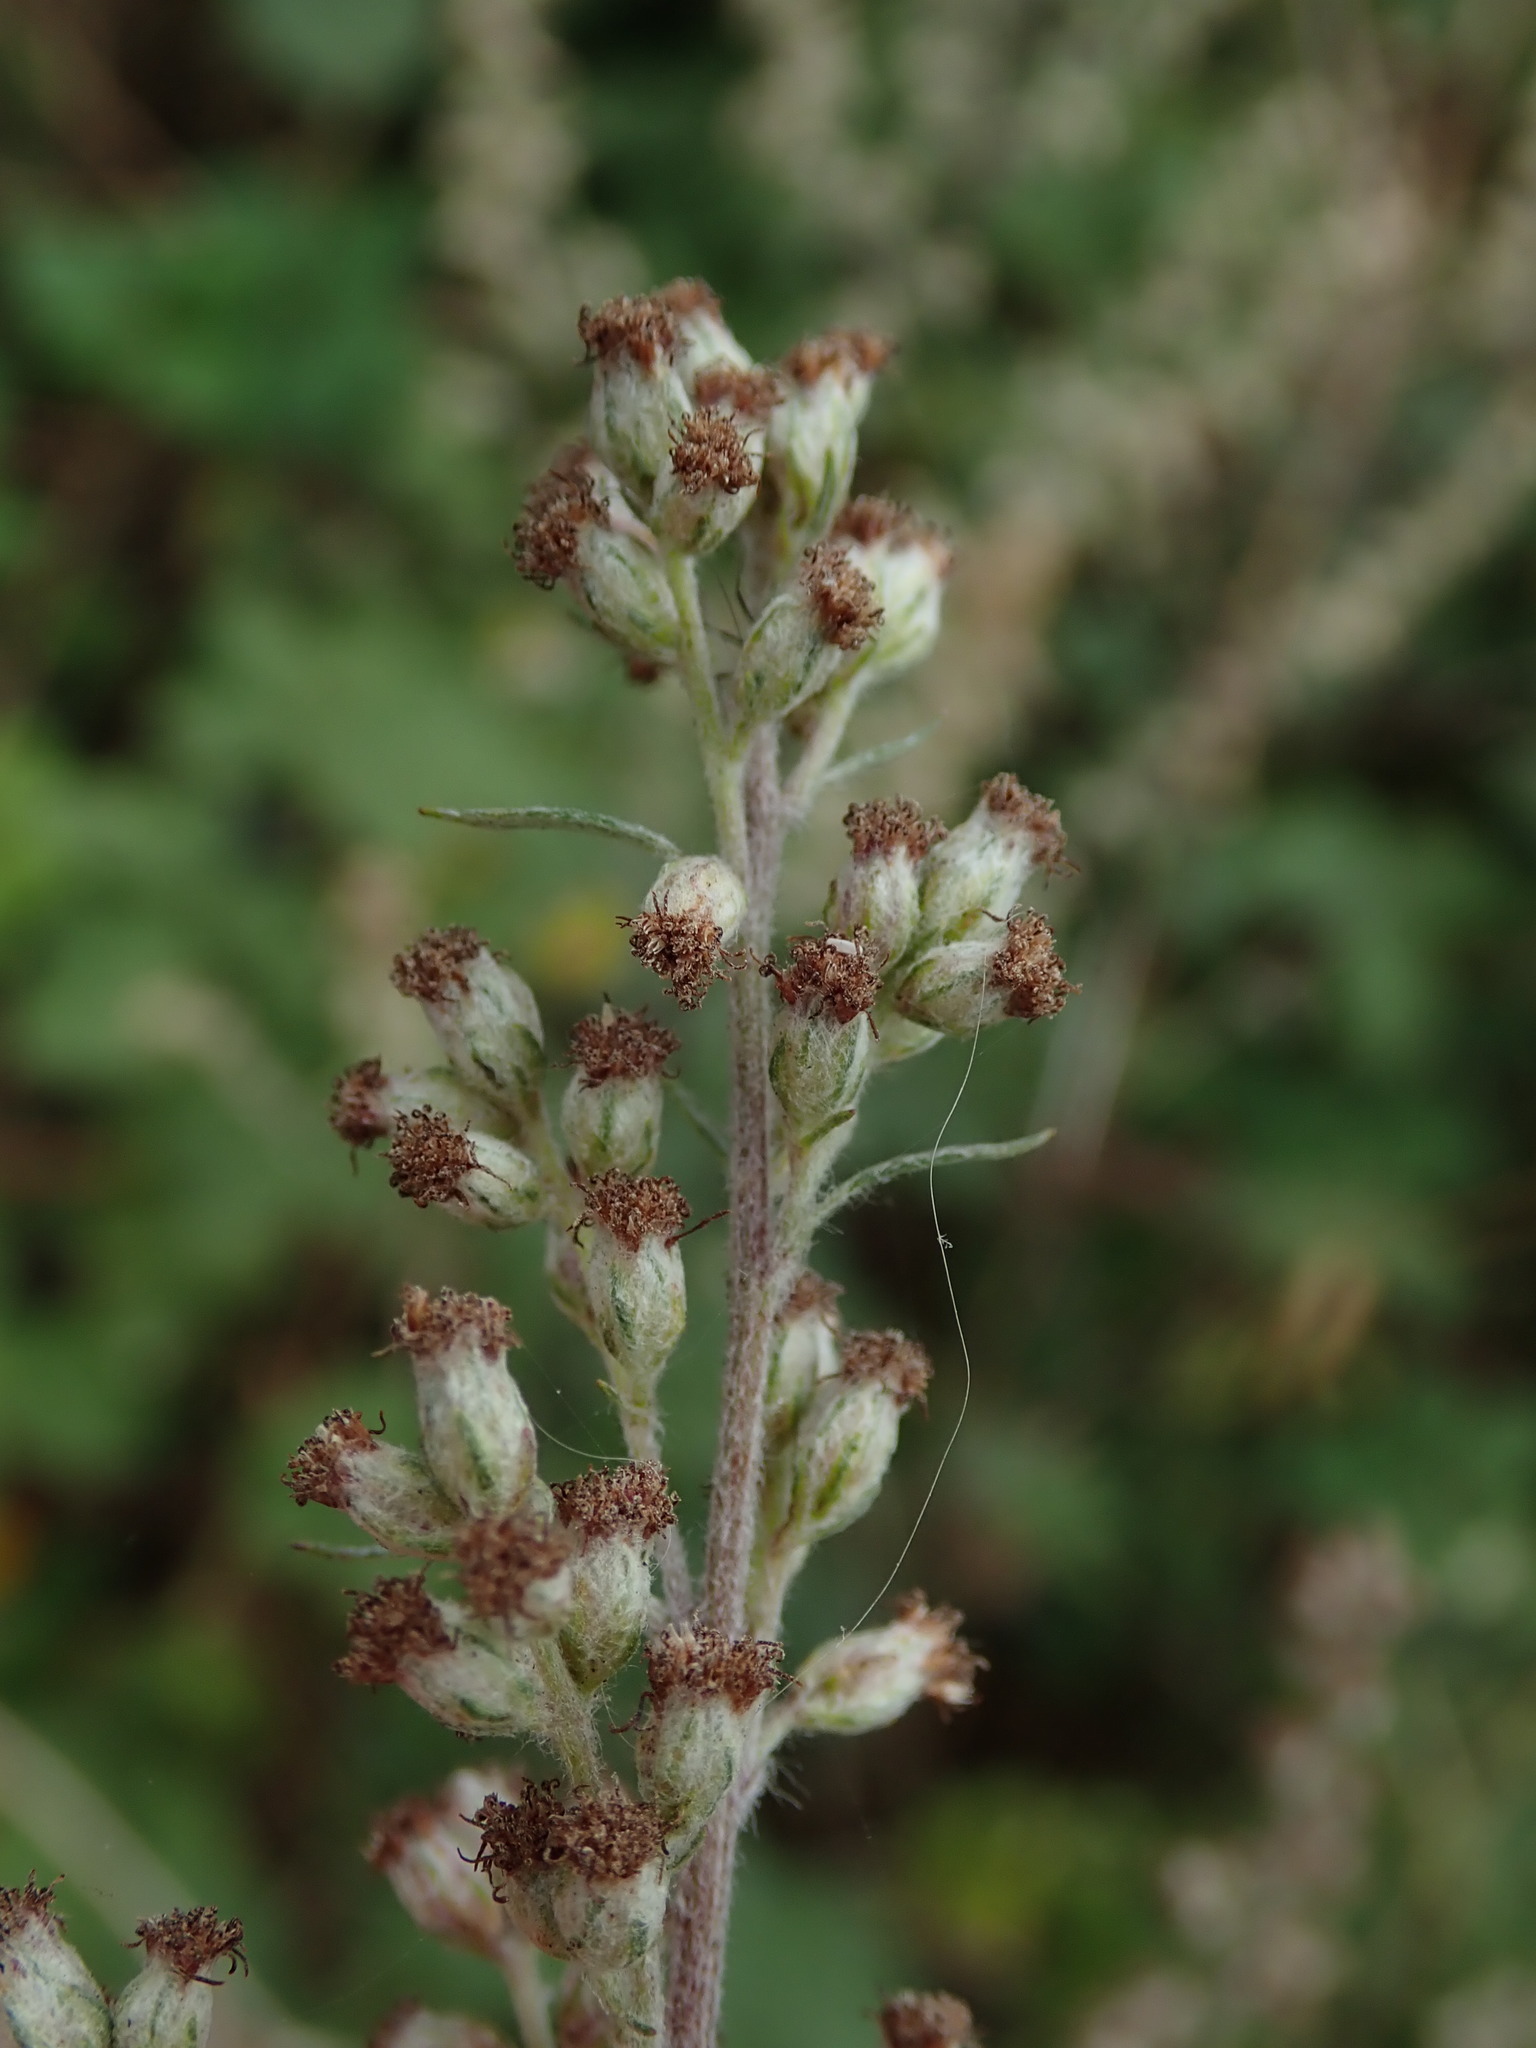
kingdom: Plantae
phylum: Tracheophyta
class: Magnoliopsida
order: Asterales
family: Asteraceae
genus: Artemisia
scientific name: Artemisia vulgaris
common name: Mugwort
